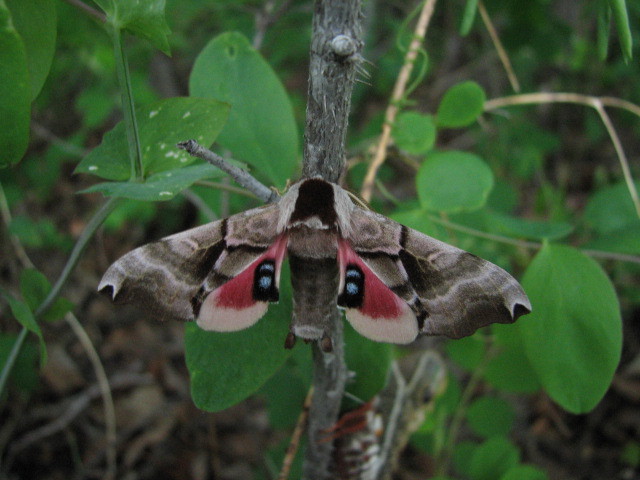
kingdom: Animalia
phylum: Arthropoda
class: Insecta
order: Lepidoptera
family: Sphingidae
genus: Smerinthus
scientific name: Smerinthus jamaicensis
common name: Twin spotted sphinx
